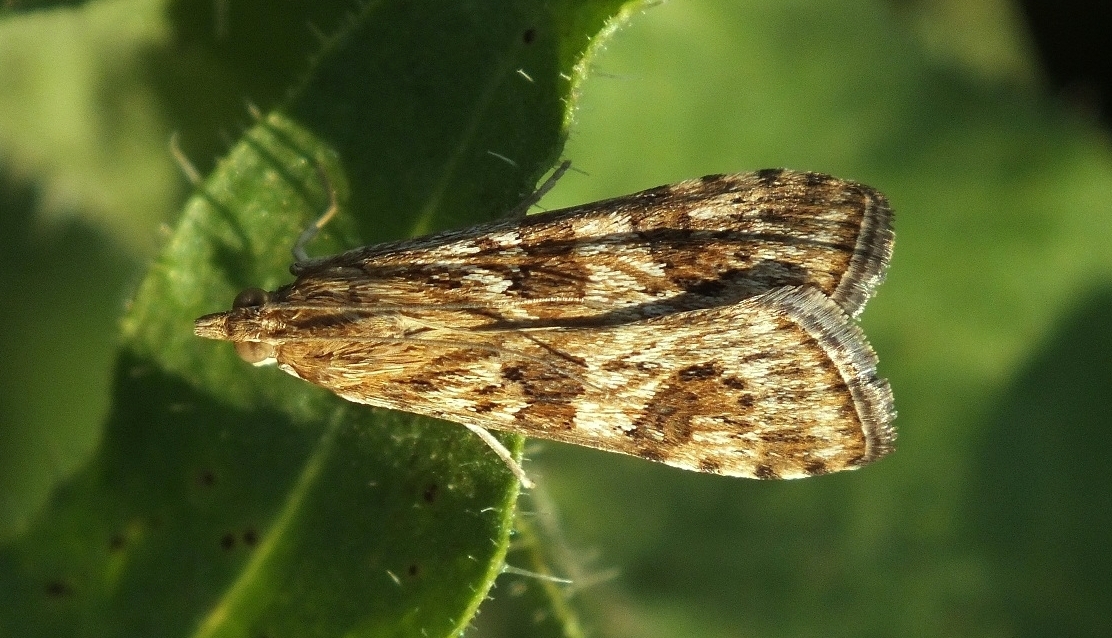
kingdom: Animalia
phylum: Arthropoda
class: Insecta
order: Lepidoptera
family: Crambidae
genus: Nomophila
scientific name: Nomophila noctuella
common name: Rush veneer
